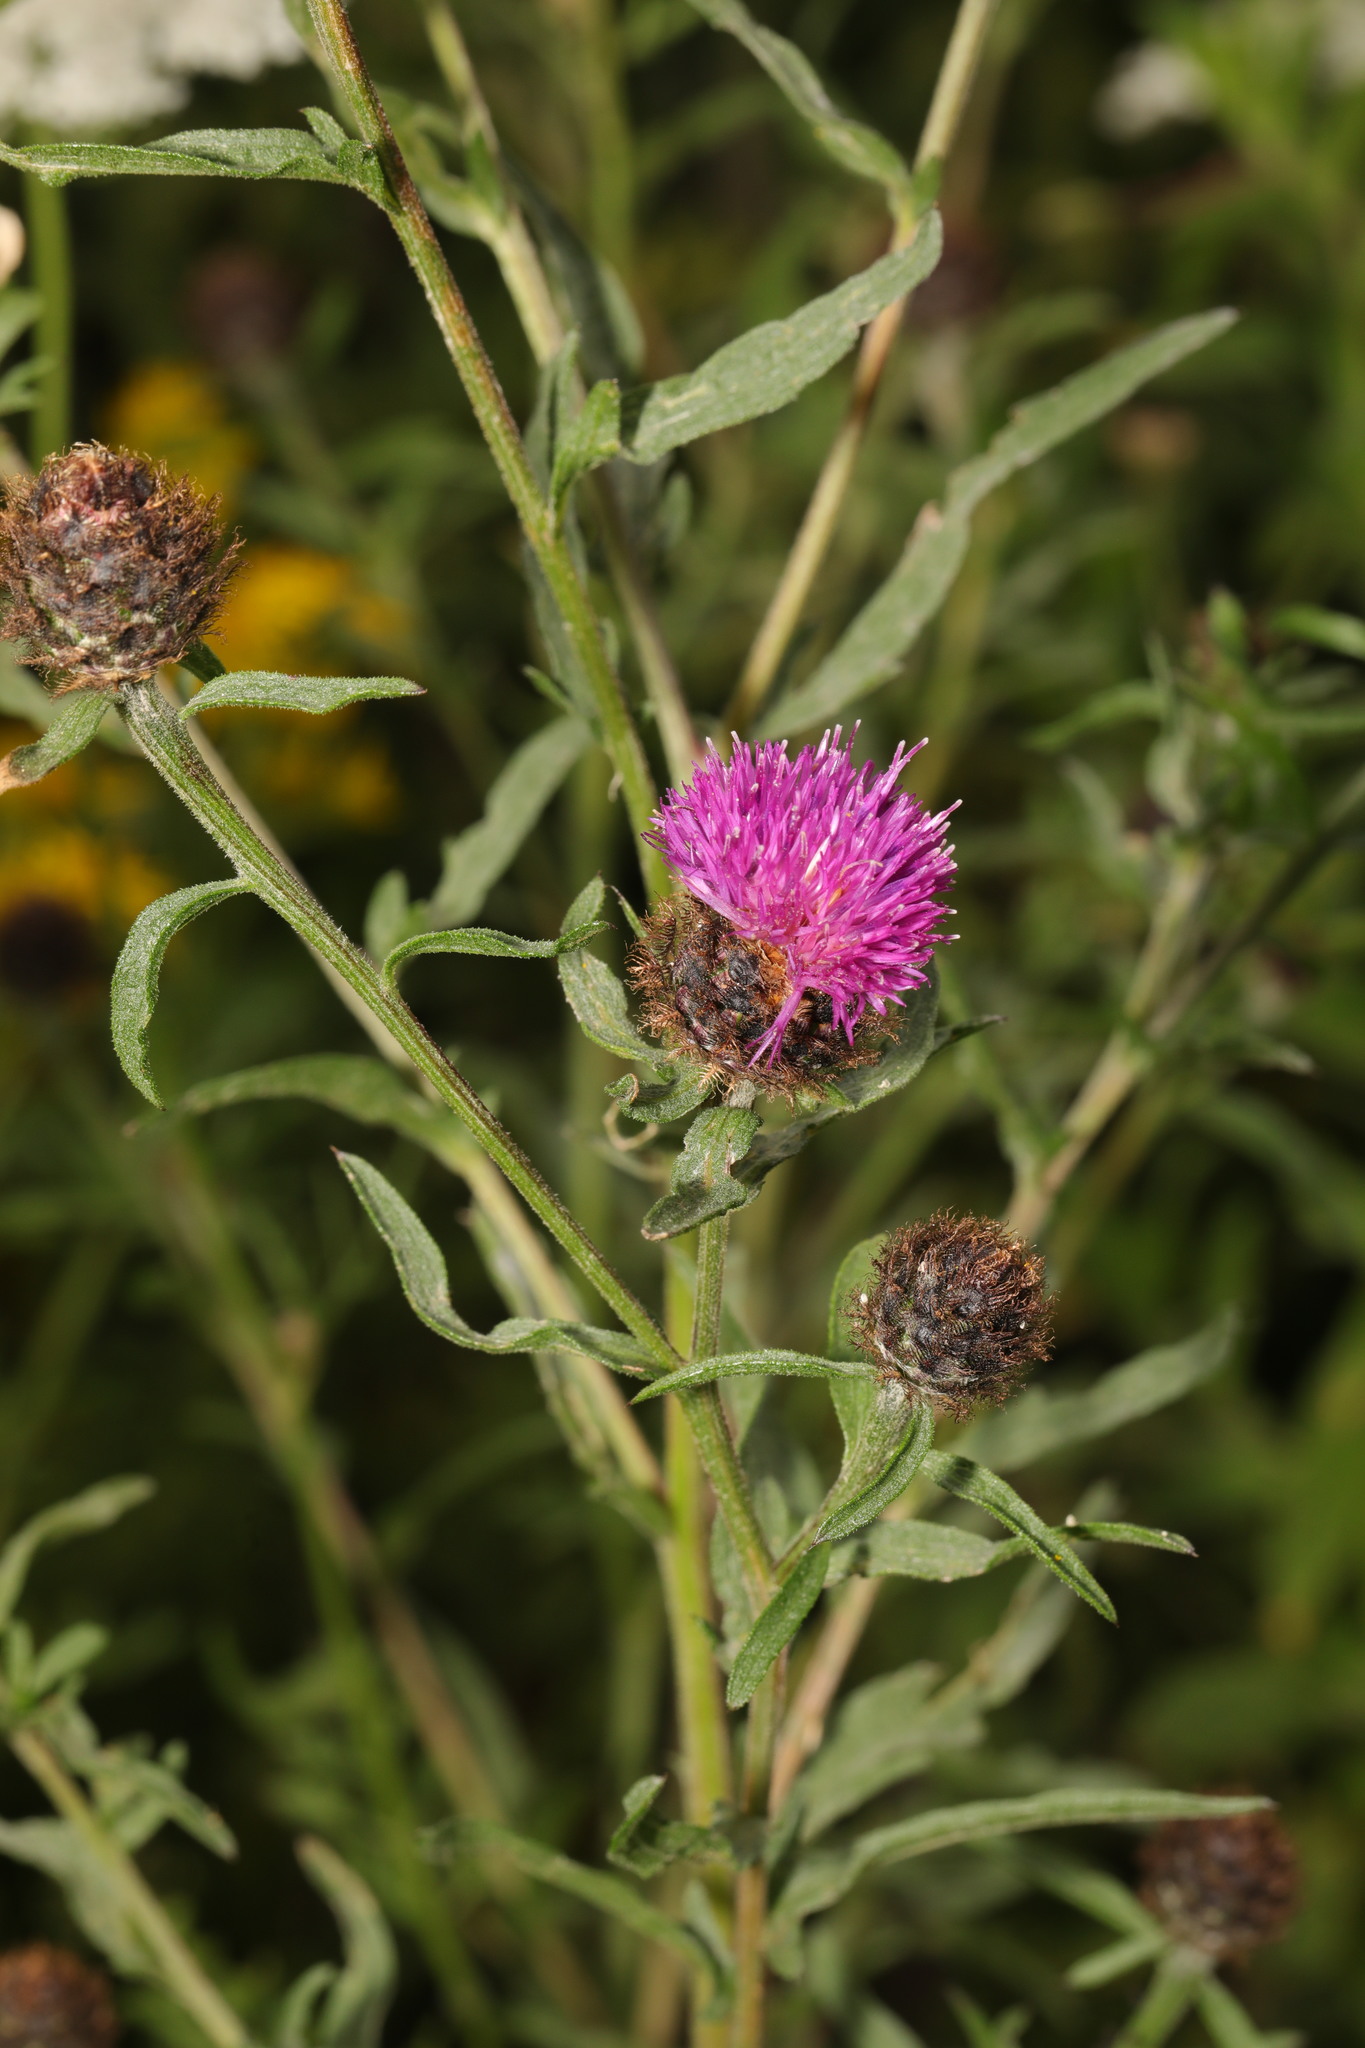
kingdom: Plantae
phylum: Tracheophyta
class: Magnoliopsida
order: Asterales
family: Asteraceae
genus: Centaurea
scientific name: Centaurea nigra
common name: Lesser knapweed
